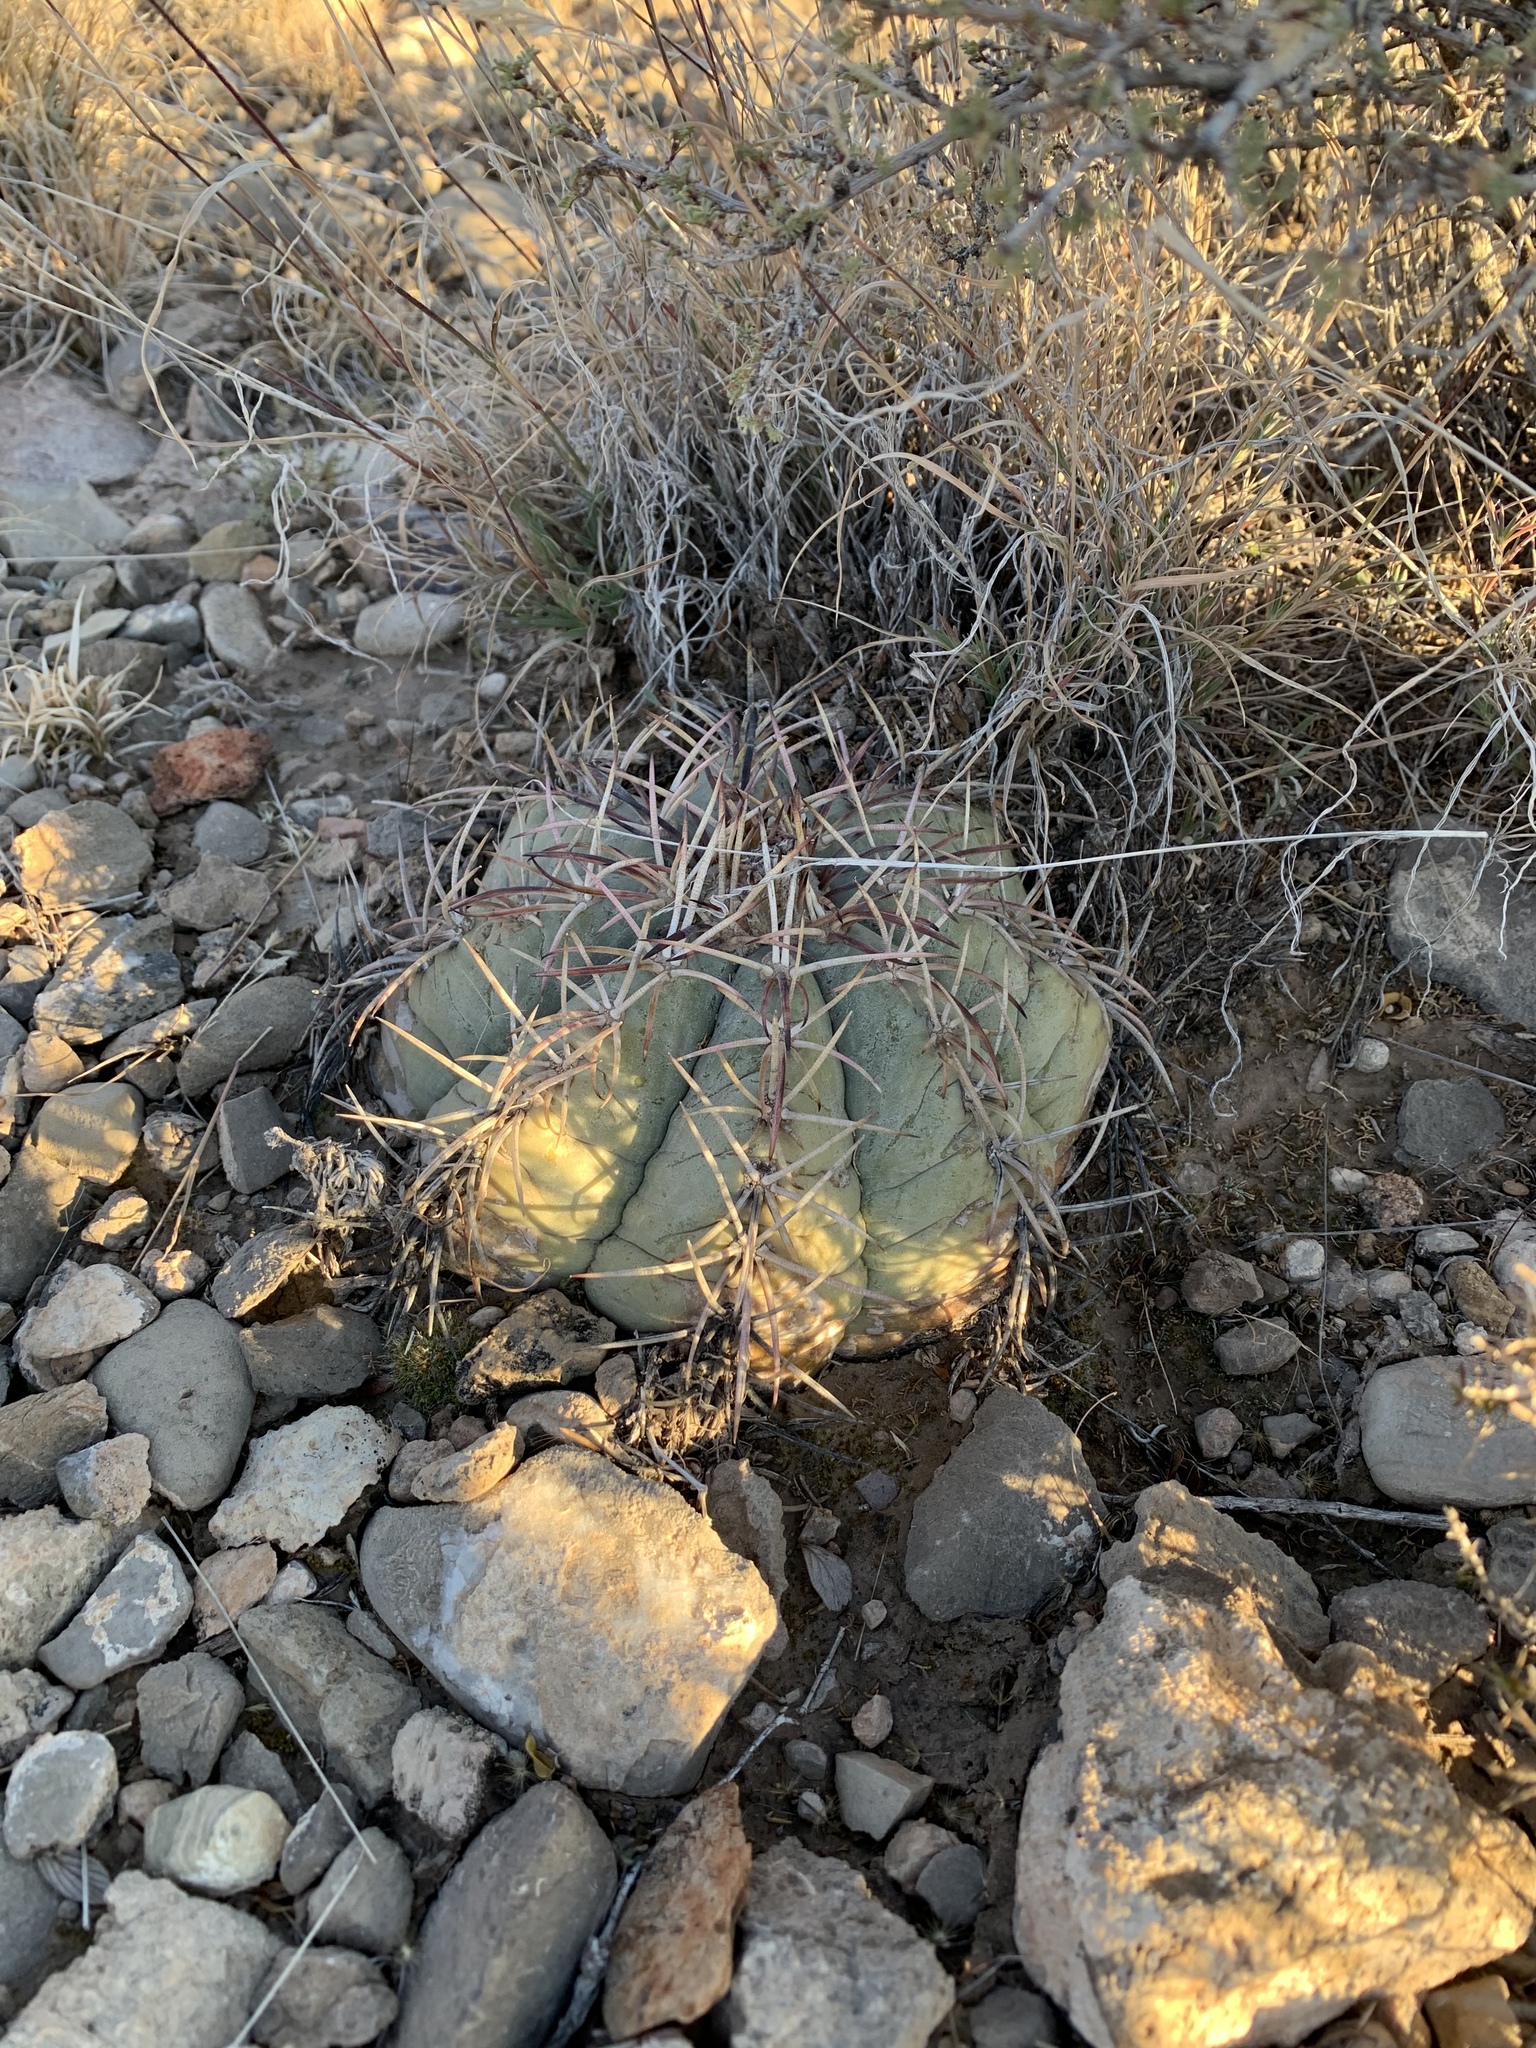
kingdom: Plantae
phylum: Tracheophyta
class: Magnoliopsida
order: Caryophyllales
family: Cactaceae
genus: Echinocactus
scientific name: Echinocactus horizonthalonius
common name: Devilshead
